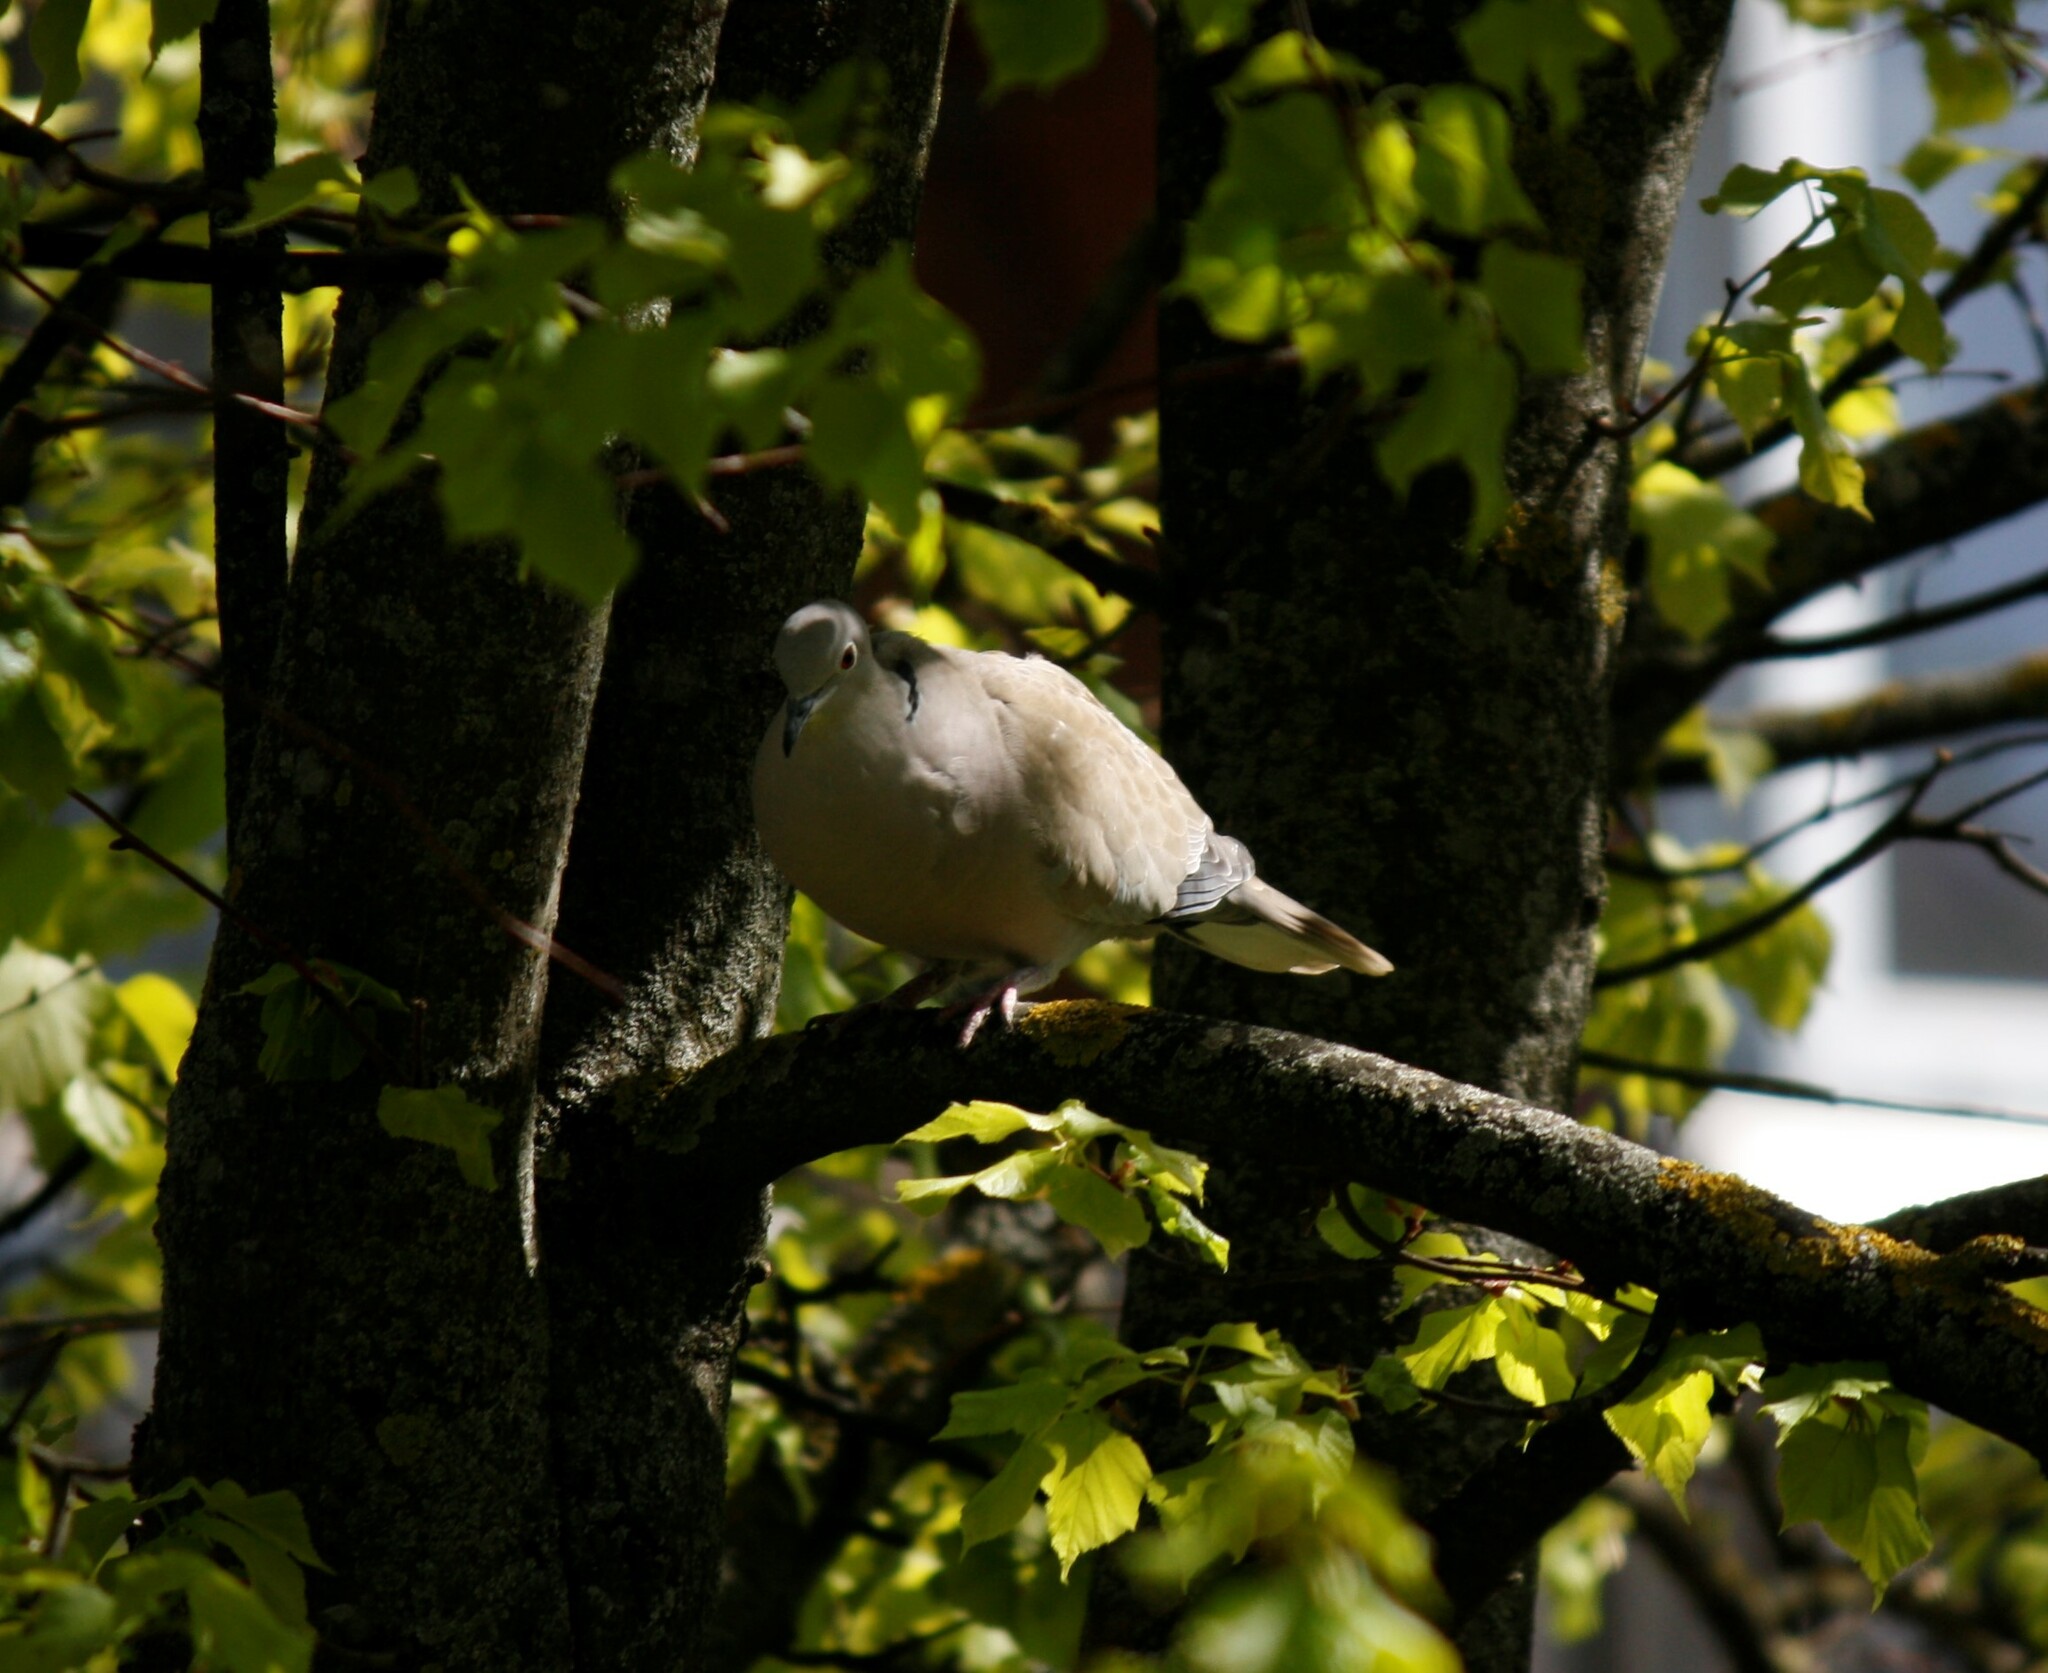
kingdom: Animalia
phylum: Chordata
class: Aves
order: Columbiformes
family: Columbidae
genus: Streptopelia
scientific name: Streptopelia decaocto
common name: Eurasian collared dove
